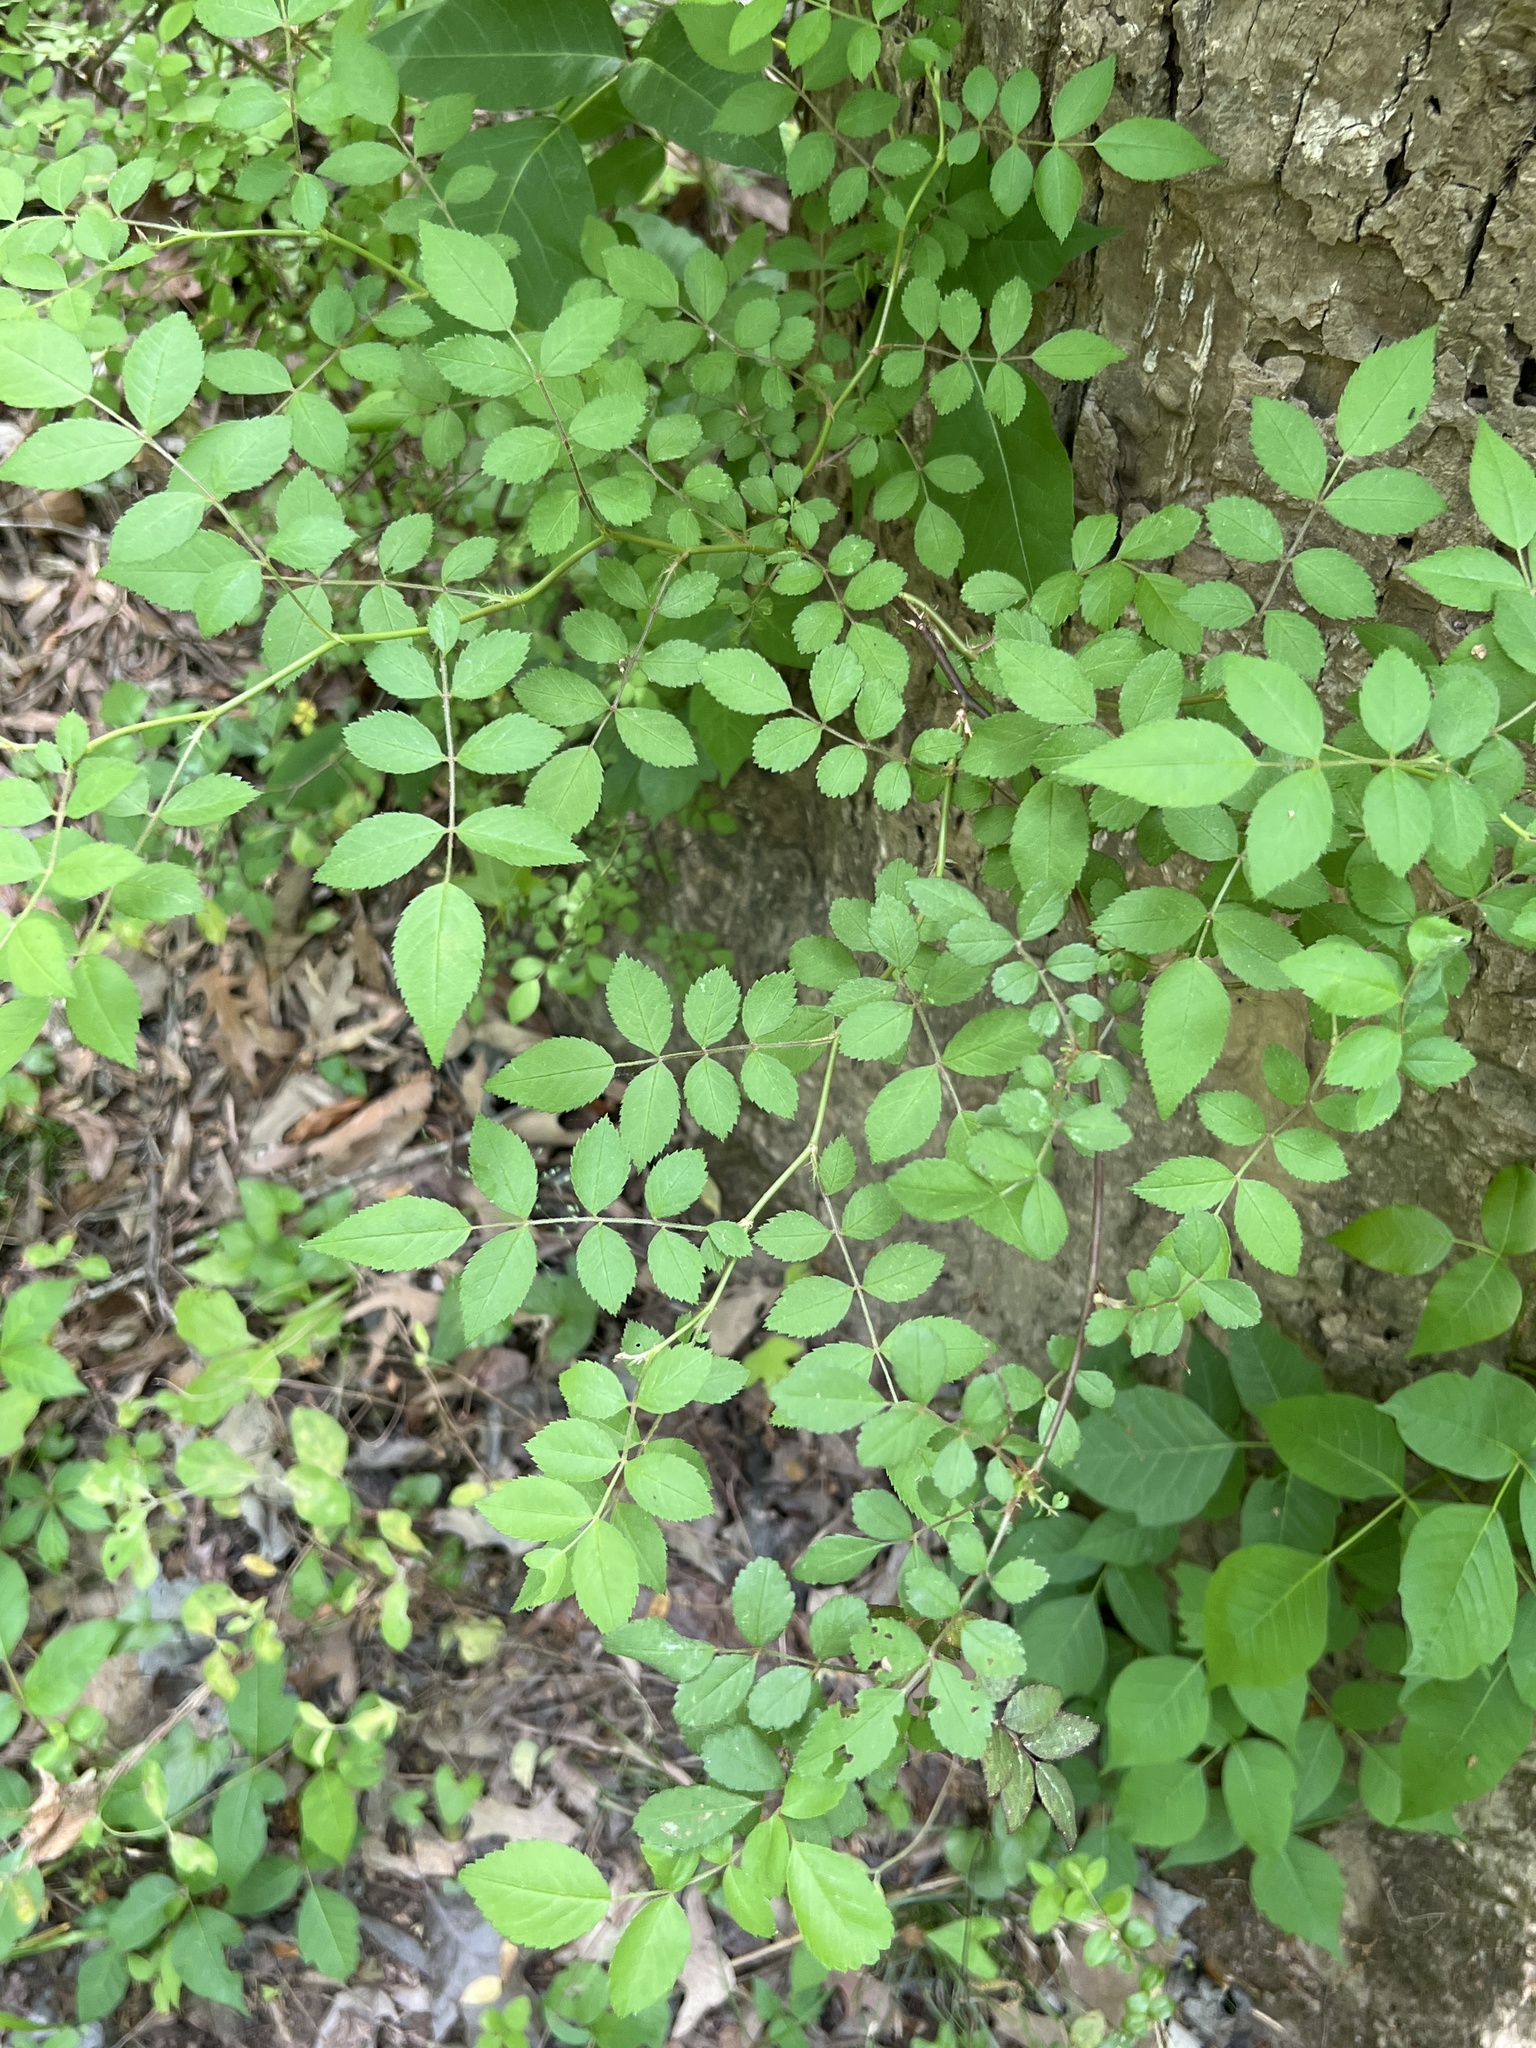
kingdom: Plantae
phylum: Tracheophyta
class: Magnoliopsida
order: Rosales
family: Rosaceae
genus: Rosa
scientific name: Rosa multiflora
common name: Multiflora rose
